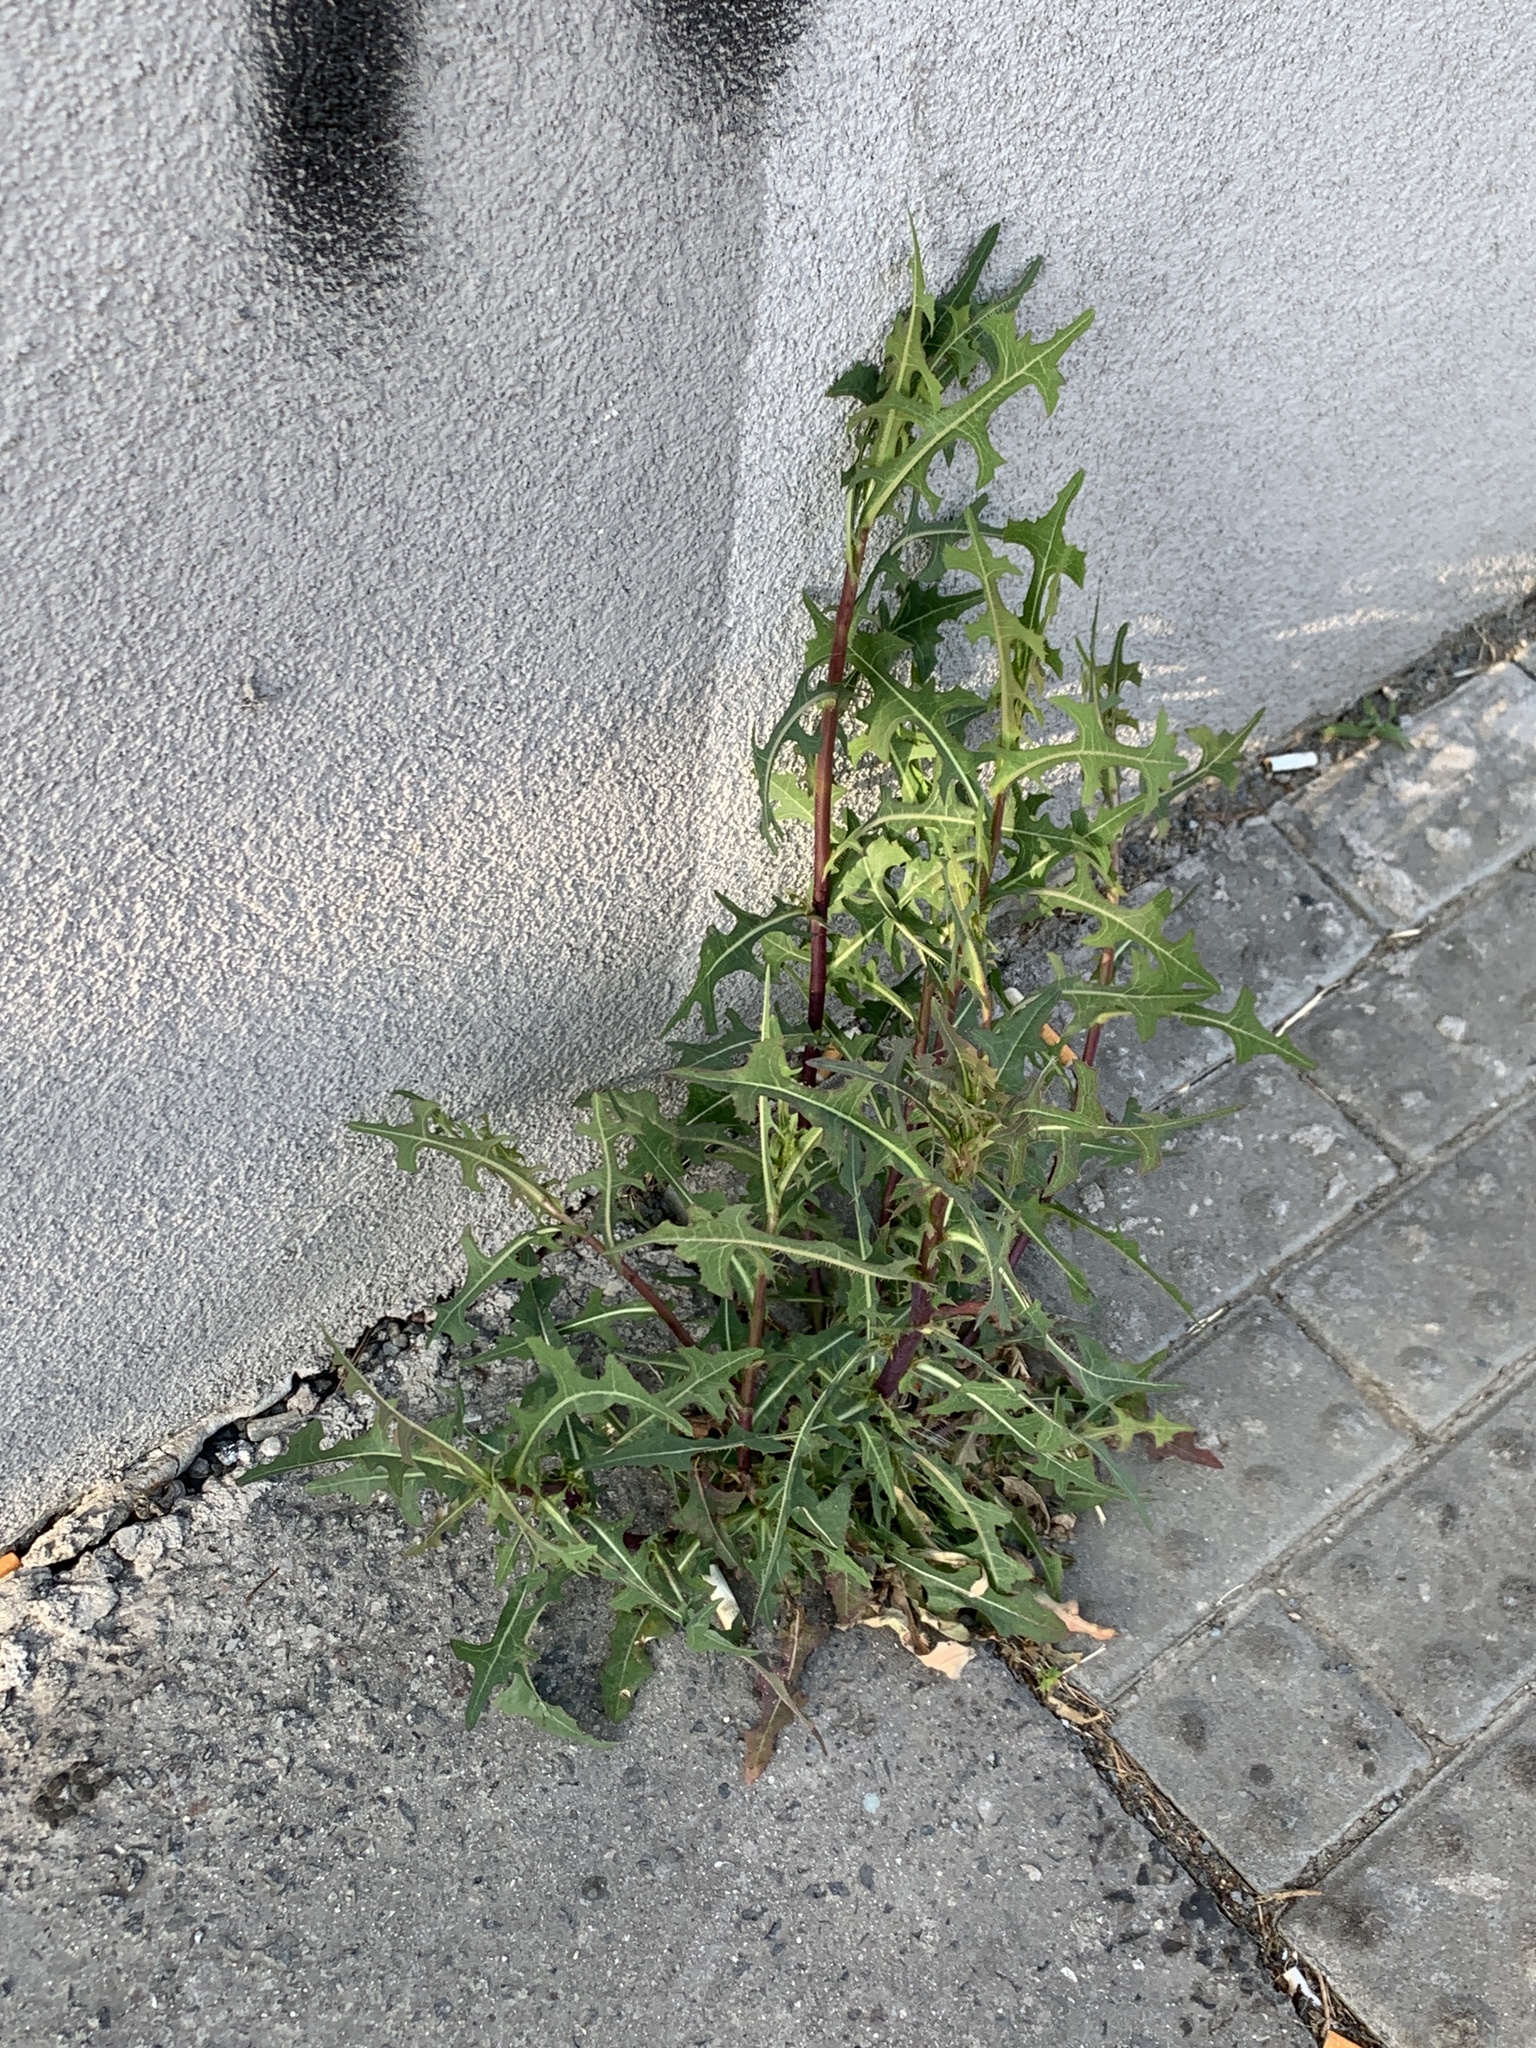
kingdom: Plantae
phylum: Tracheophyta
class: Magnoliopsida
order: Asterales
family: Asteraceae
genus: Lactuca
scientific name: Lactuca serriola
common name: Prickly lettuce
